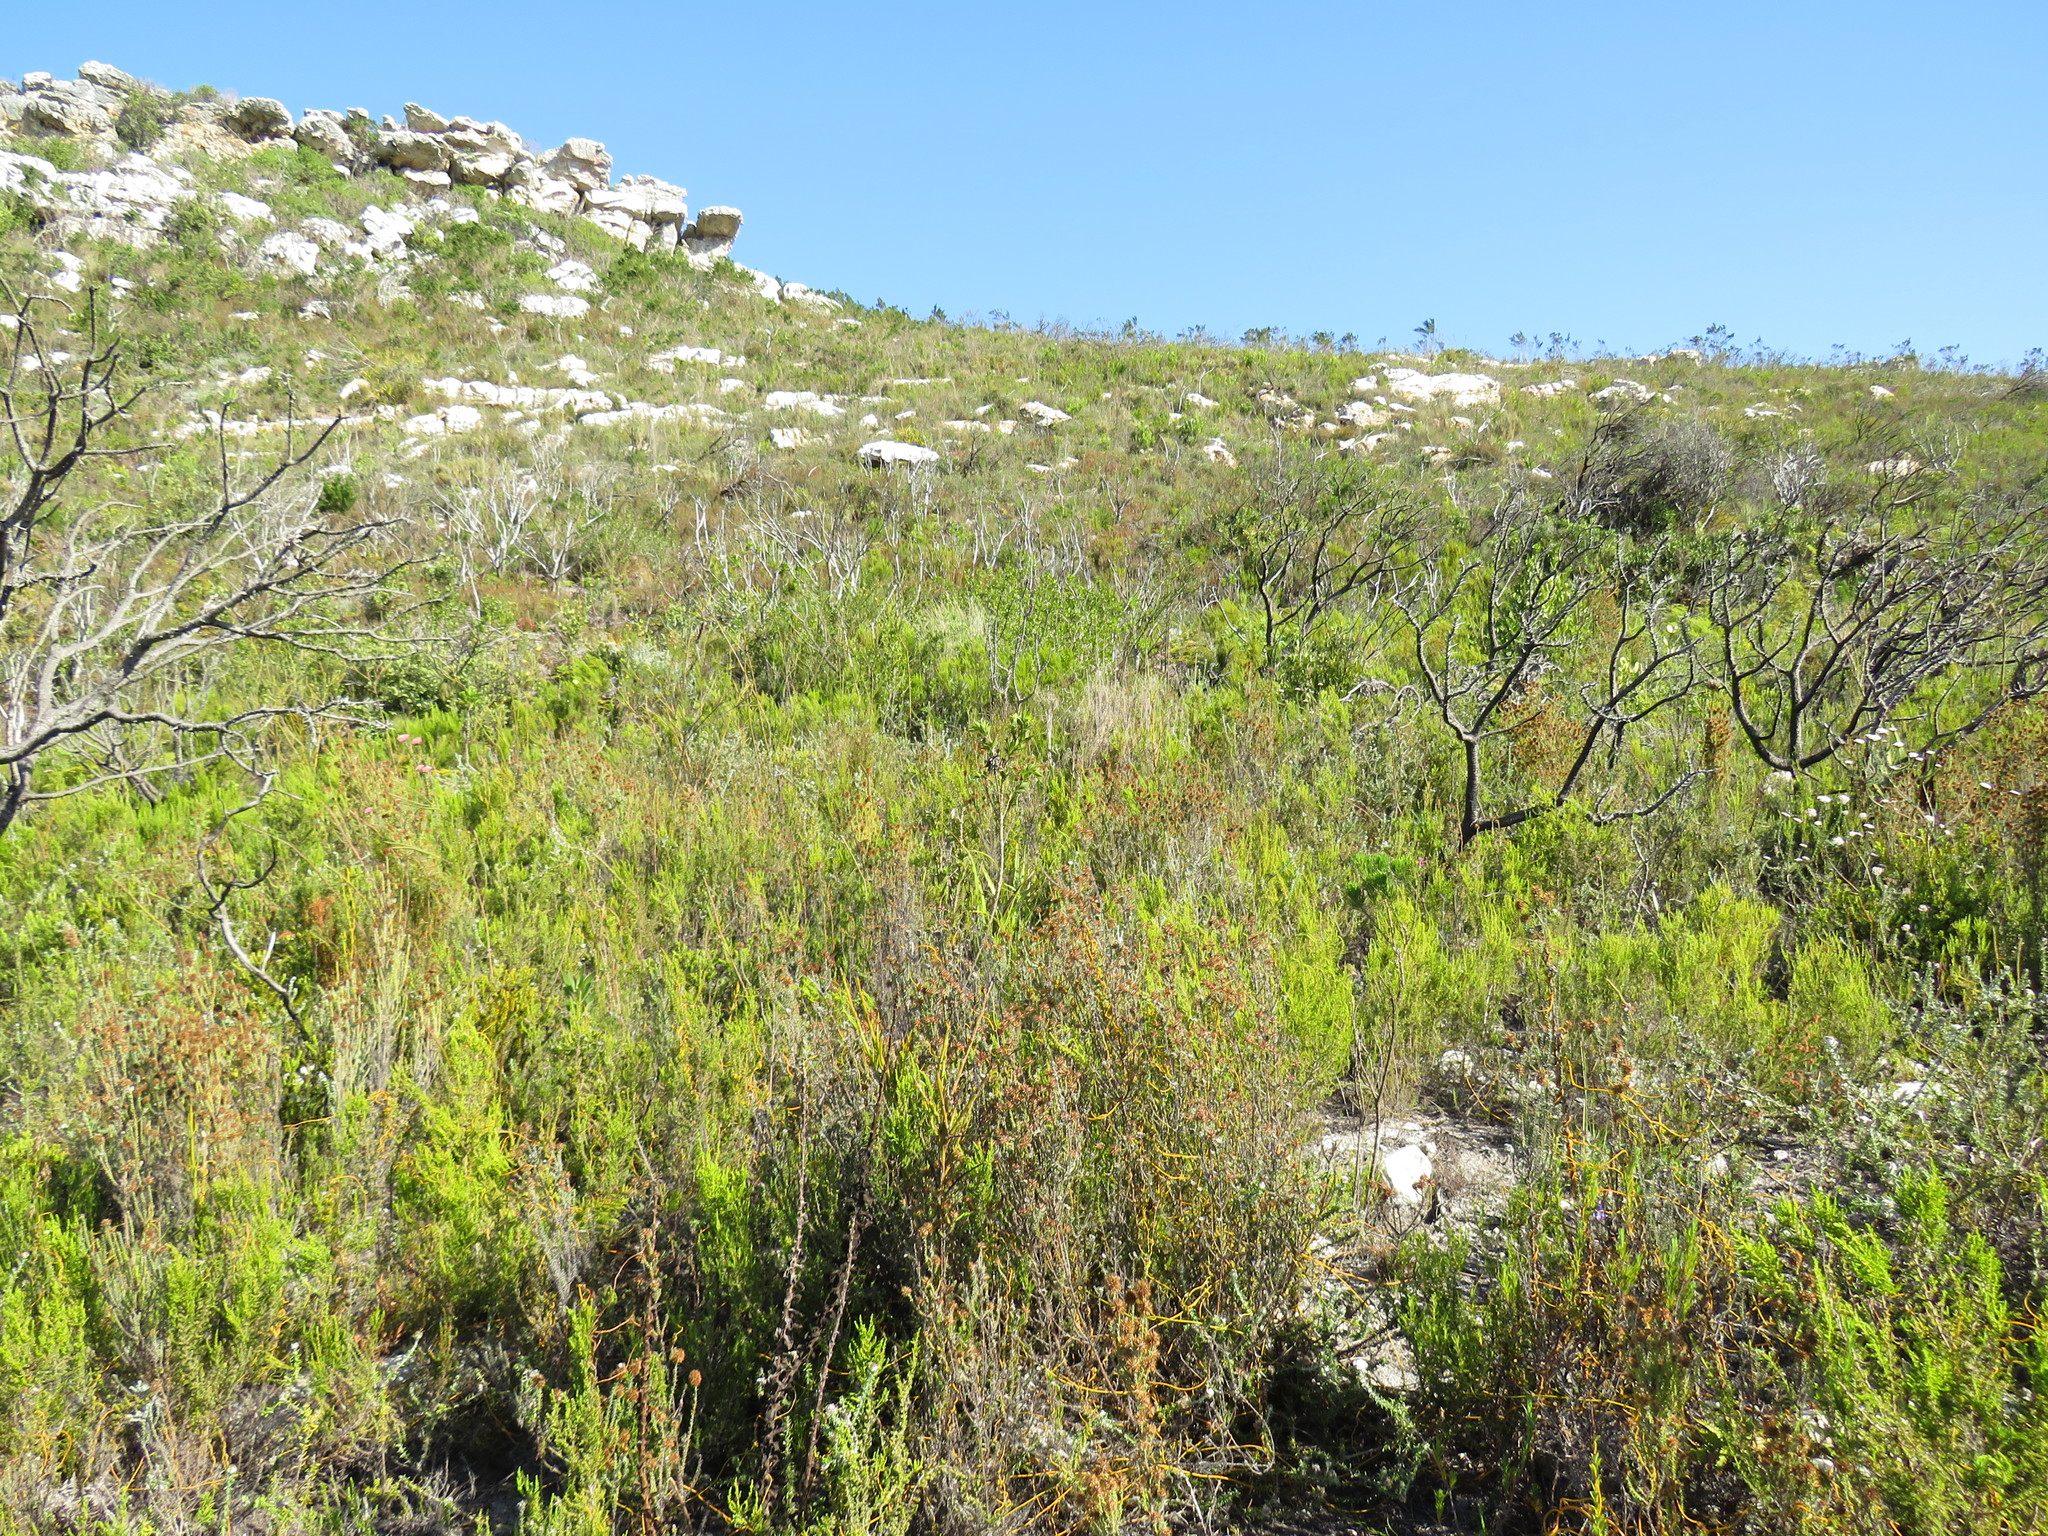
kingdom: Plantae
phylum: Tracheophyta
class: Magnoliopsida
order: Fabales
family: Fabaceae
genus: Liparia
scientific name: Liparia splendens
